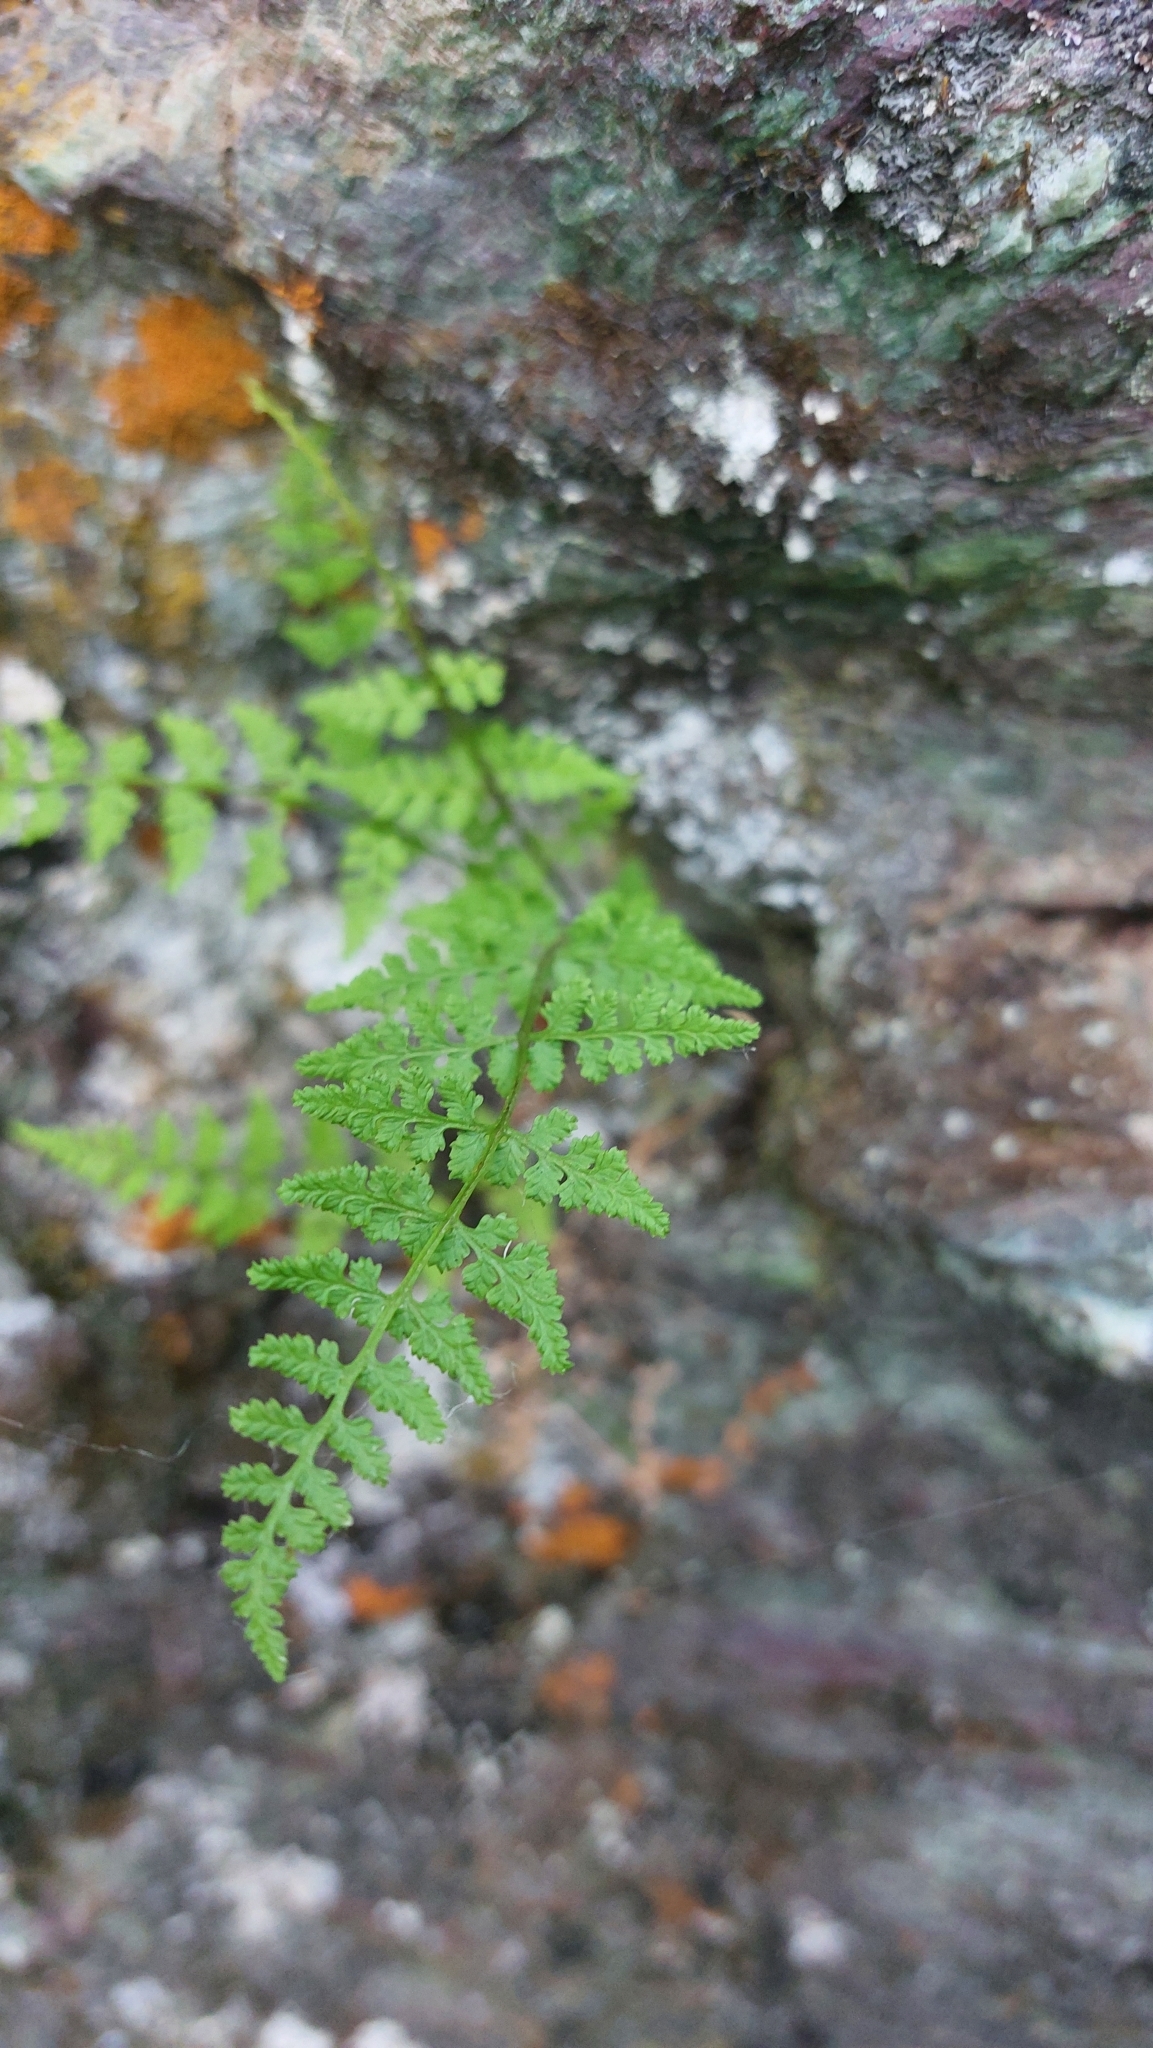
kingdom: Plantae
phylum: Tracheophyta
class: Polypodiopsida
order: Polypodiales
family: Cystopteridaceae
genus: Cystopteris
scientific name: Cystopteris fragilis
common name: Brittle bladder fern
